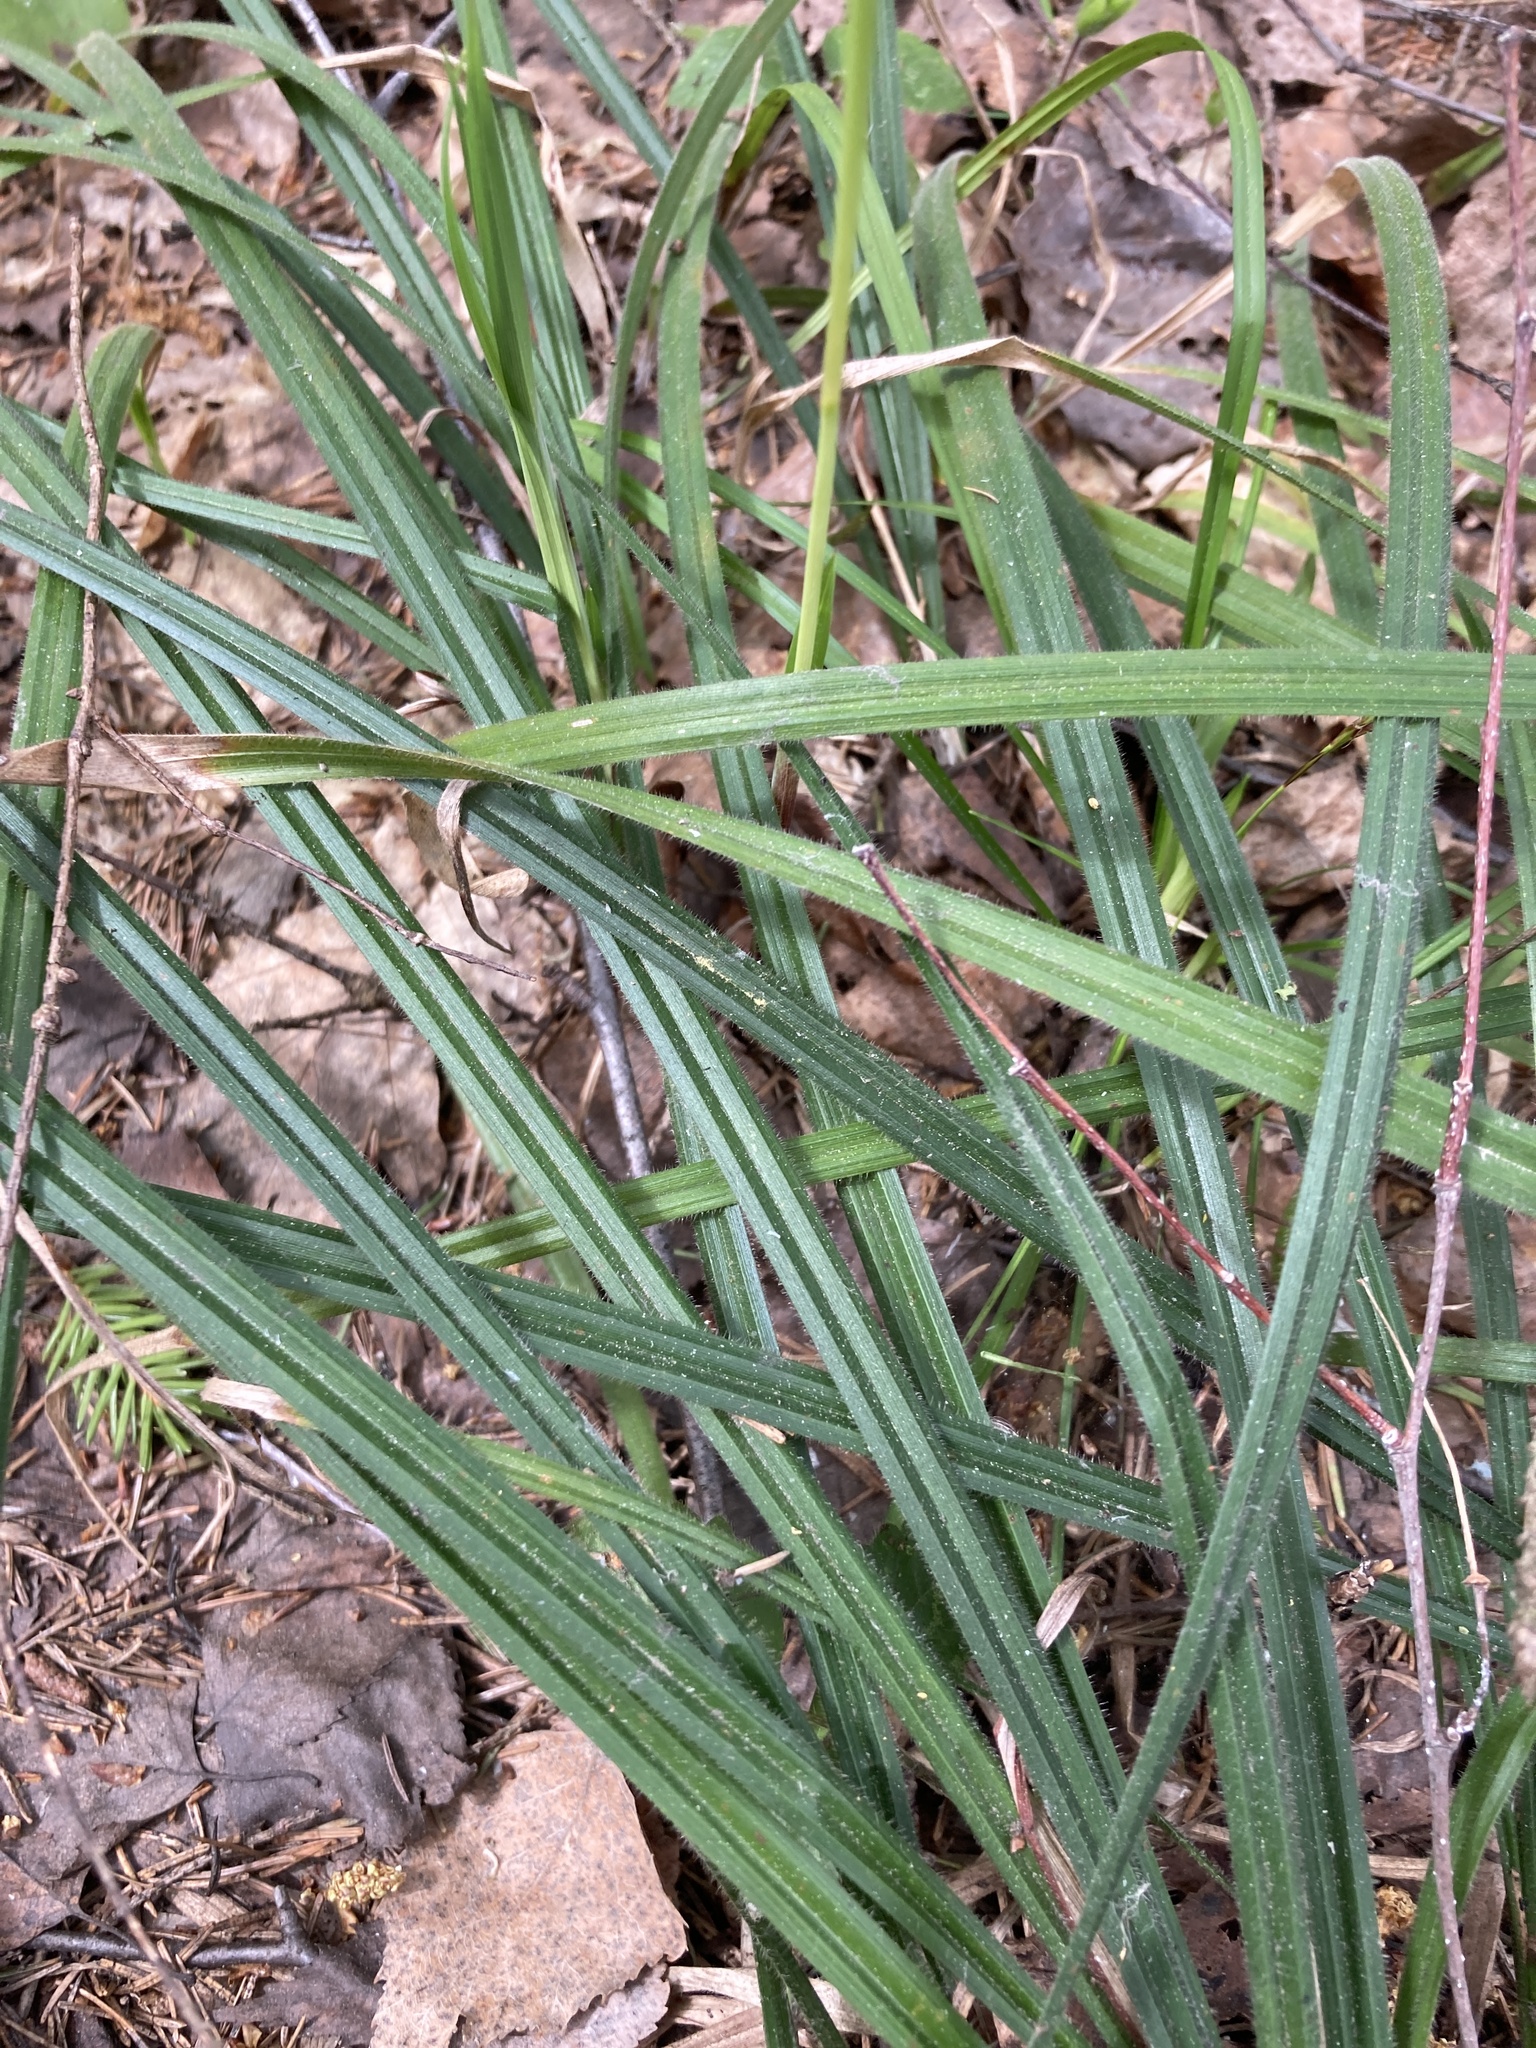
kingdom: Plantae
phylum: Tracheophyta
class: Liliopsida
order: Poales
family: Cyperaceae
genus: Carex
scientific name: Carex pilosa
